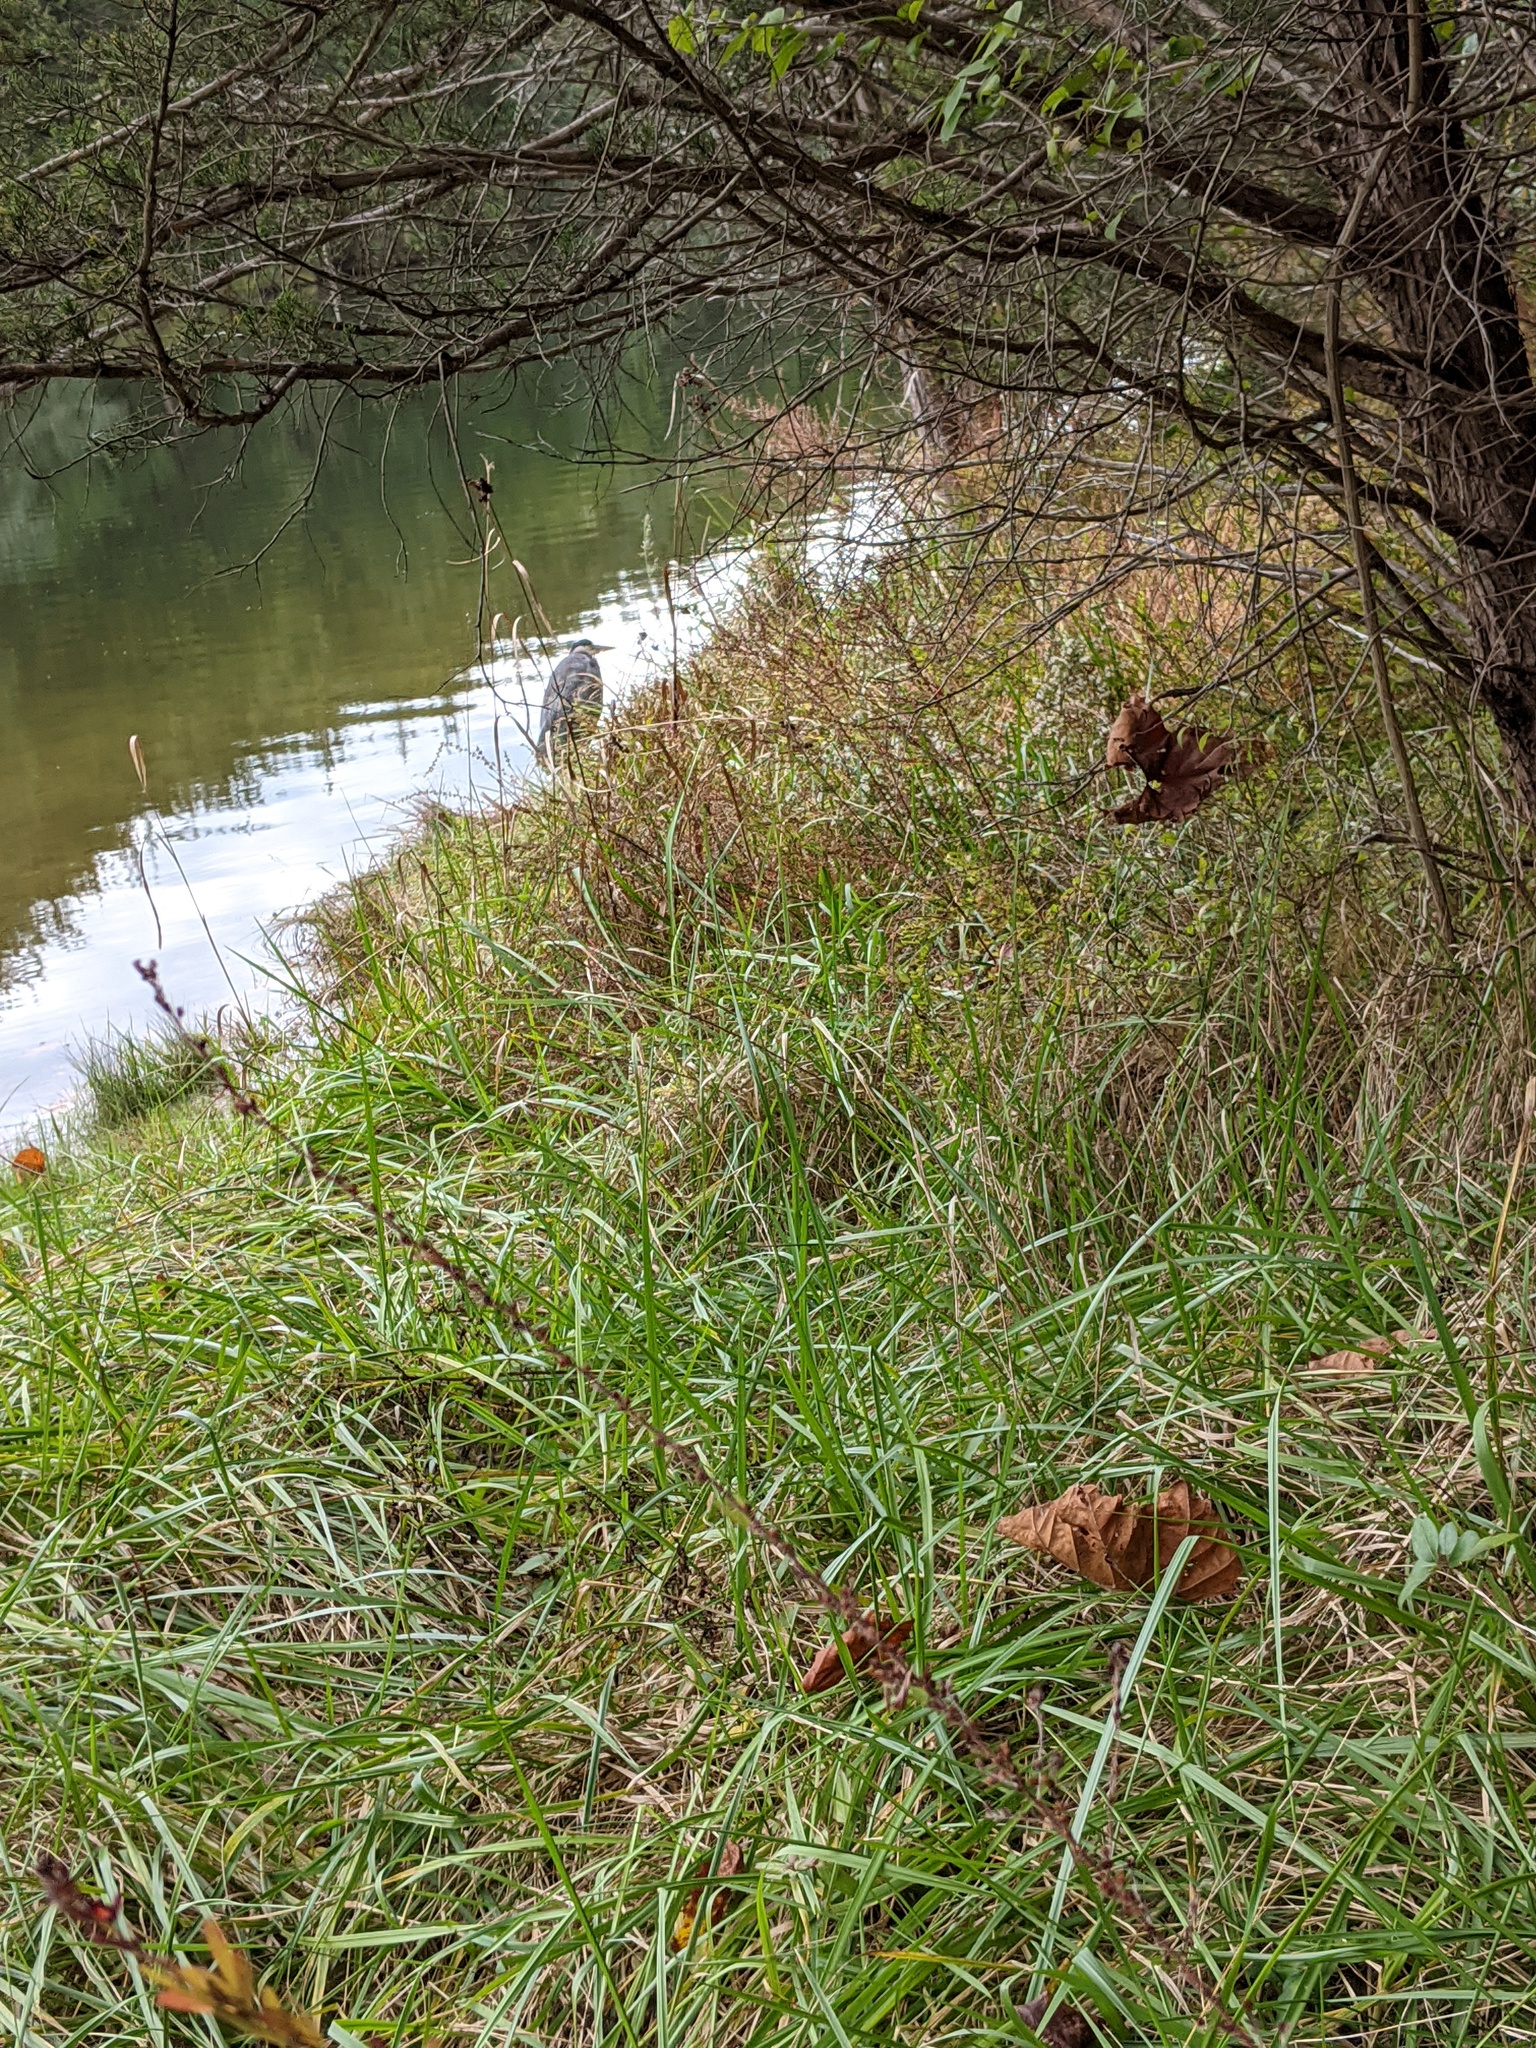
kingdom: Animalia
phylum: Chordata
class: Aves
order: Pelecaniformes
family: Ardeidae
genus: Ardea
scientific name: Ardea herodias
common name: Great blue heron
